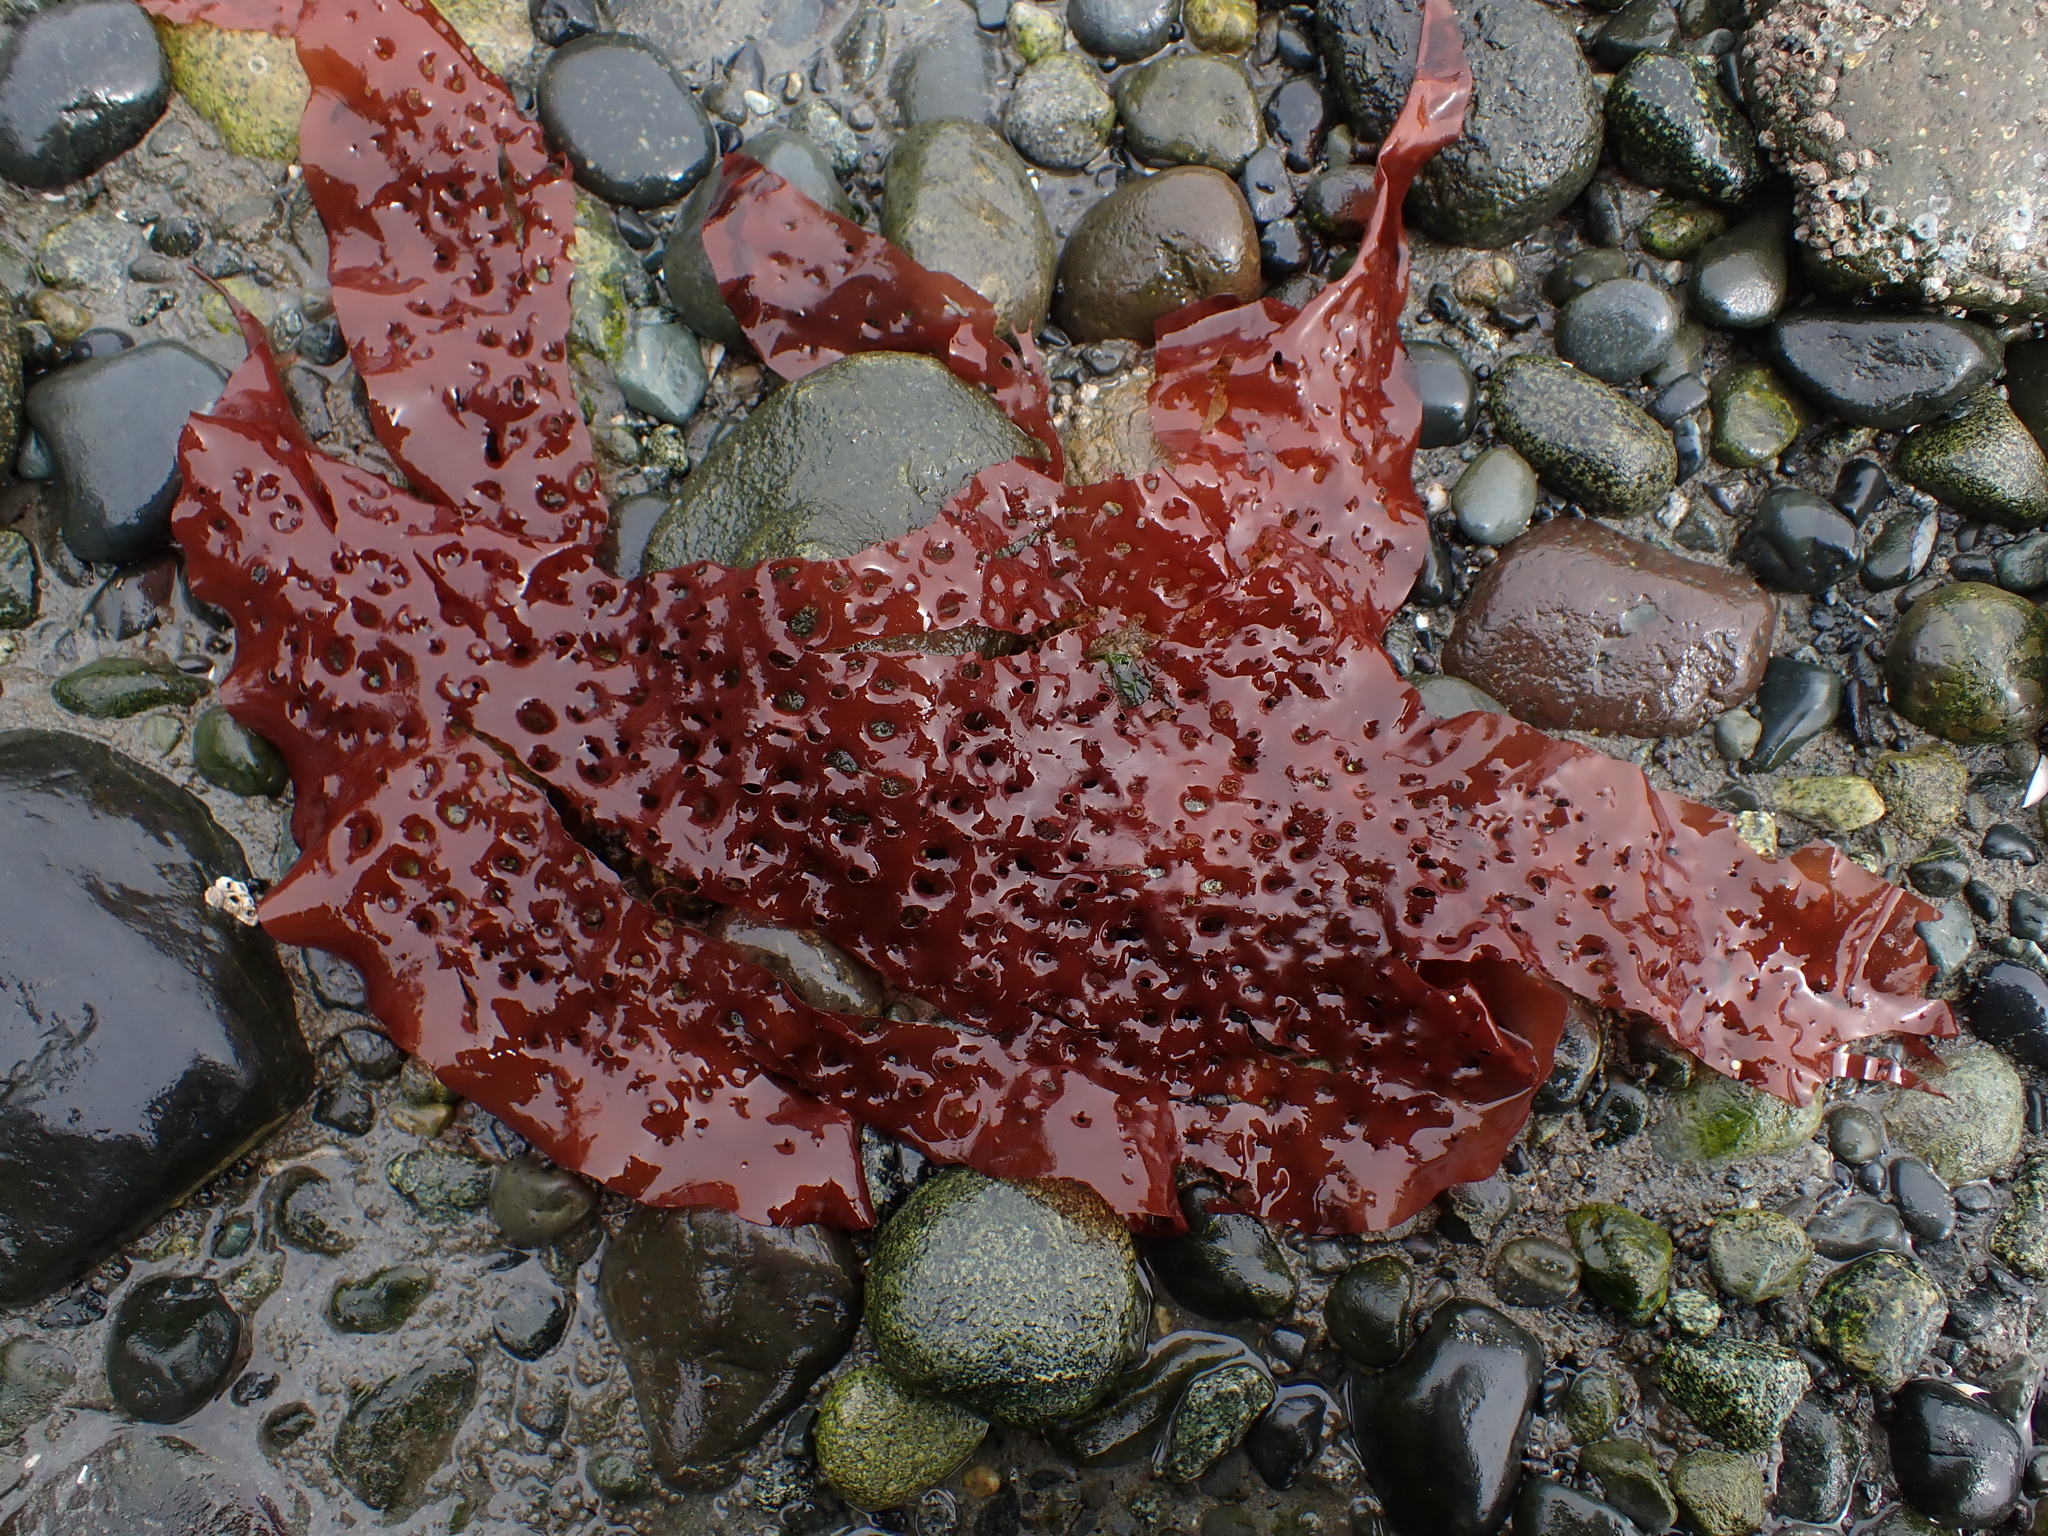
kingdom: Plantae
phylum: Rhodophyta
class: Florideophyceae
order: Rhodymeniales
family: Rhodymeniaceae
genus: Sparlingia
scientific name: Sparlingia pertusa
